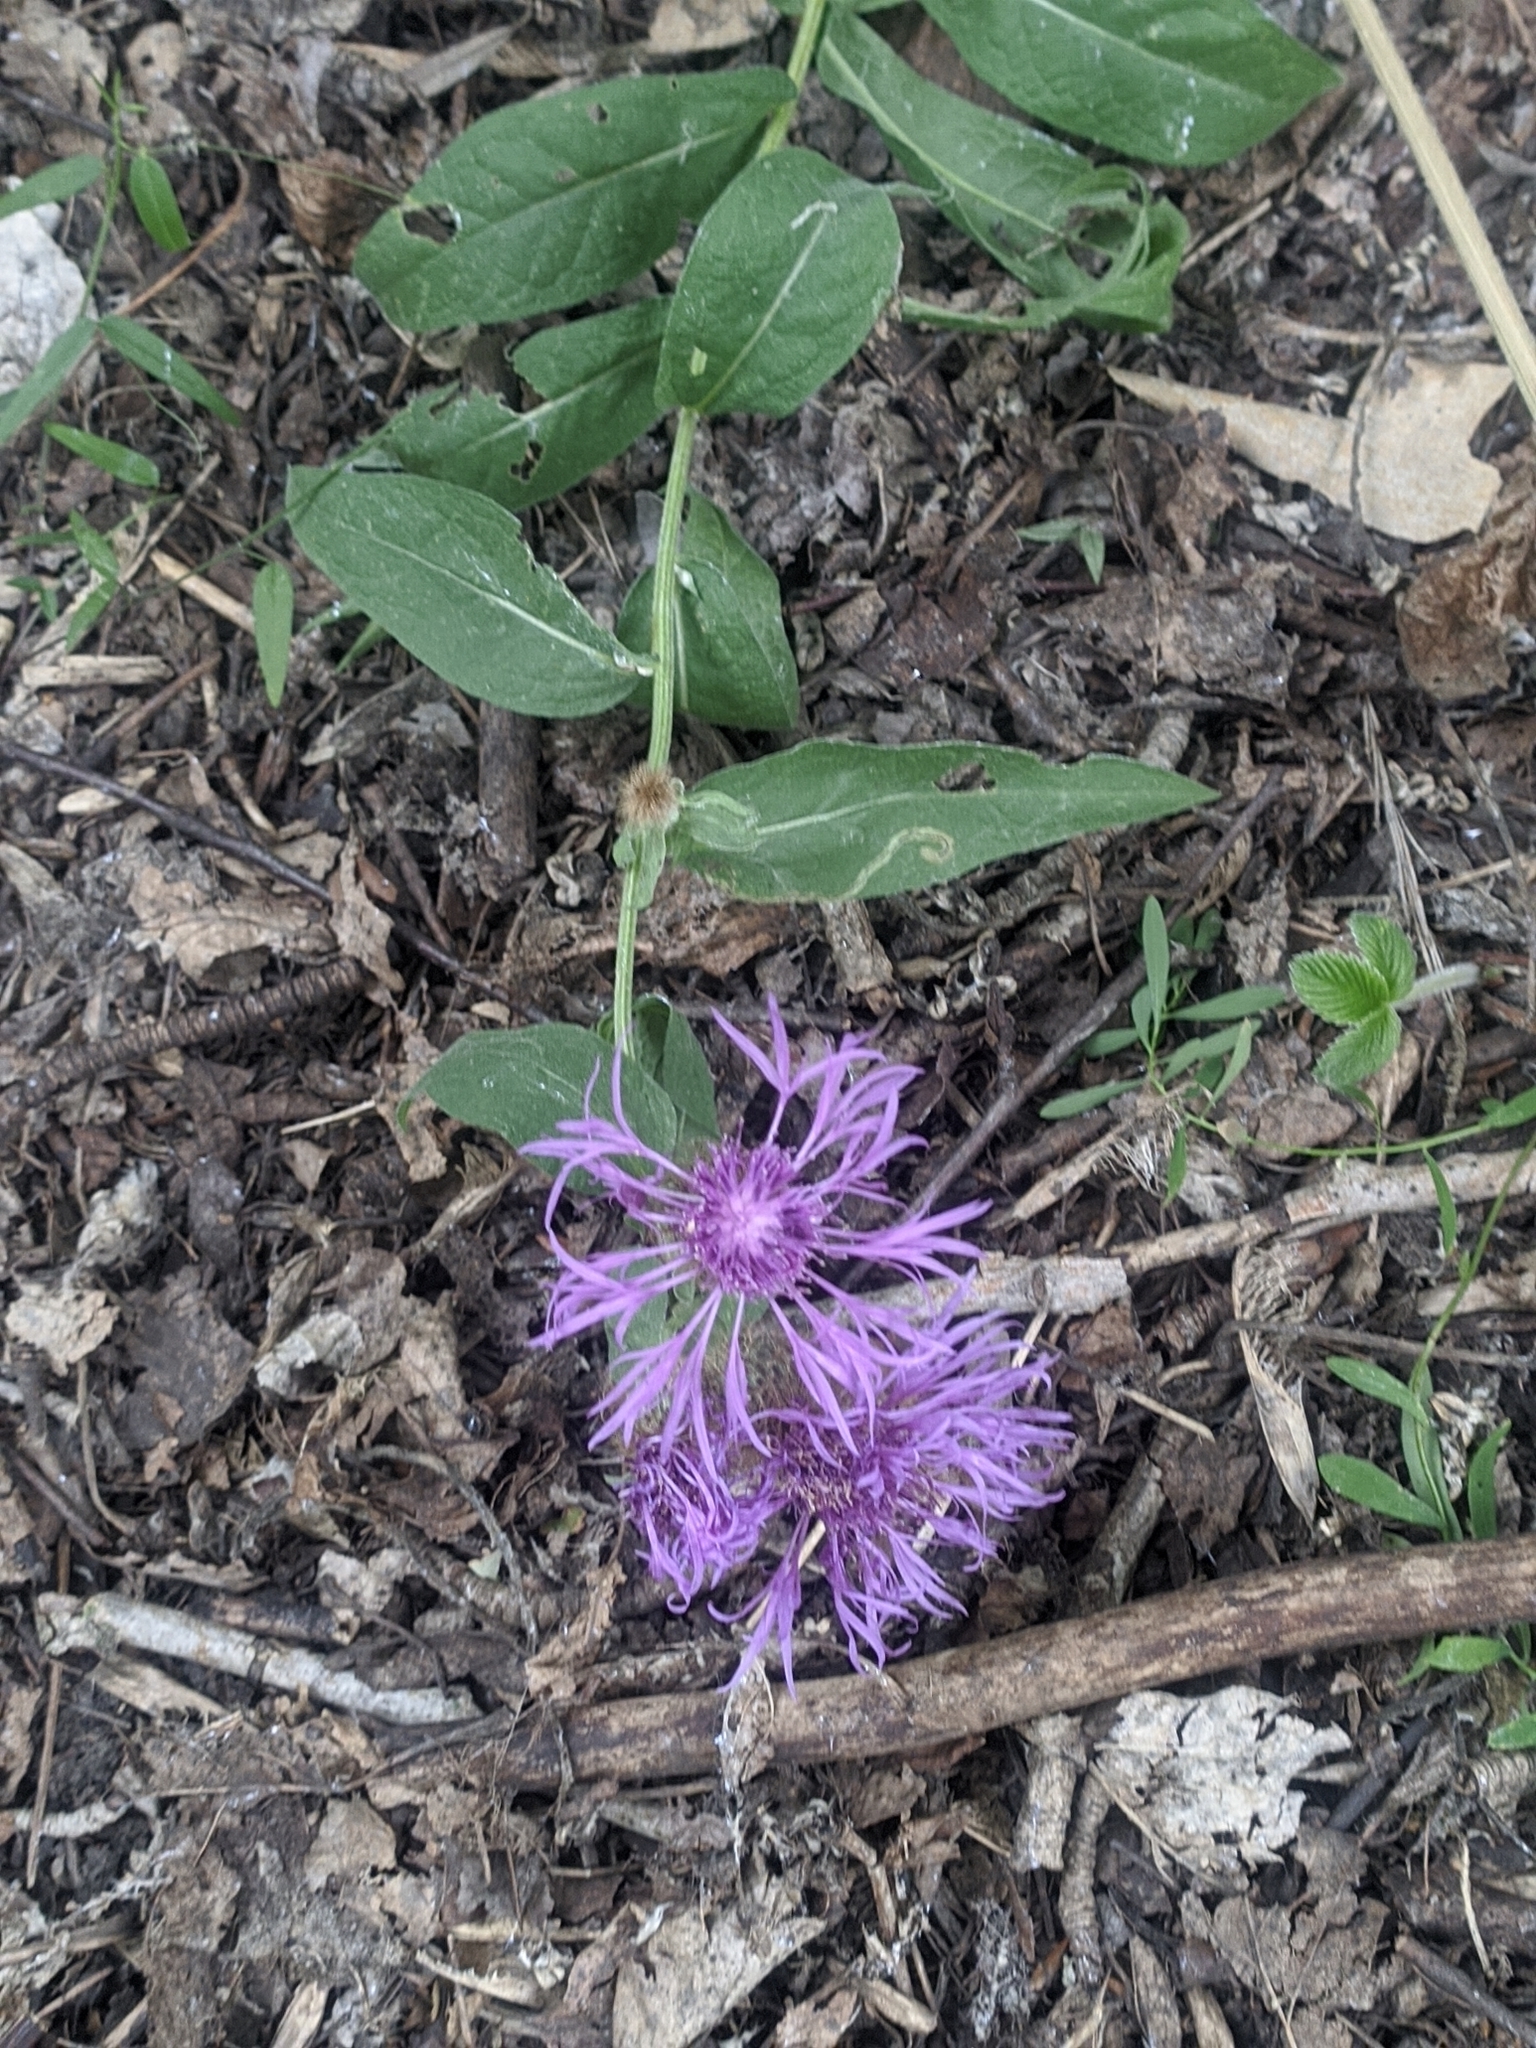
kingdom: Plantae
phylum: Tracheophyta
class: Magnoliopsida
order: Asterales
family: Asteraceae
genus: Centaurea
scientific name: Centaurea pseudophrygia
